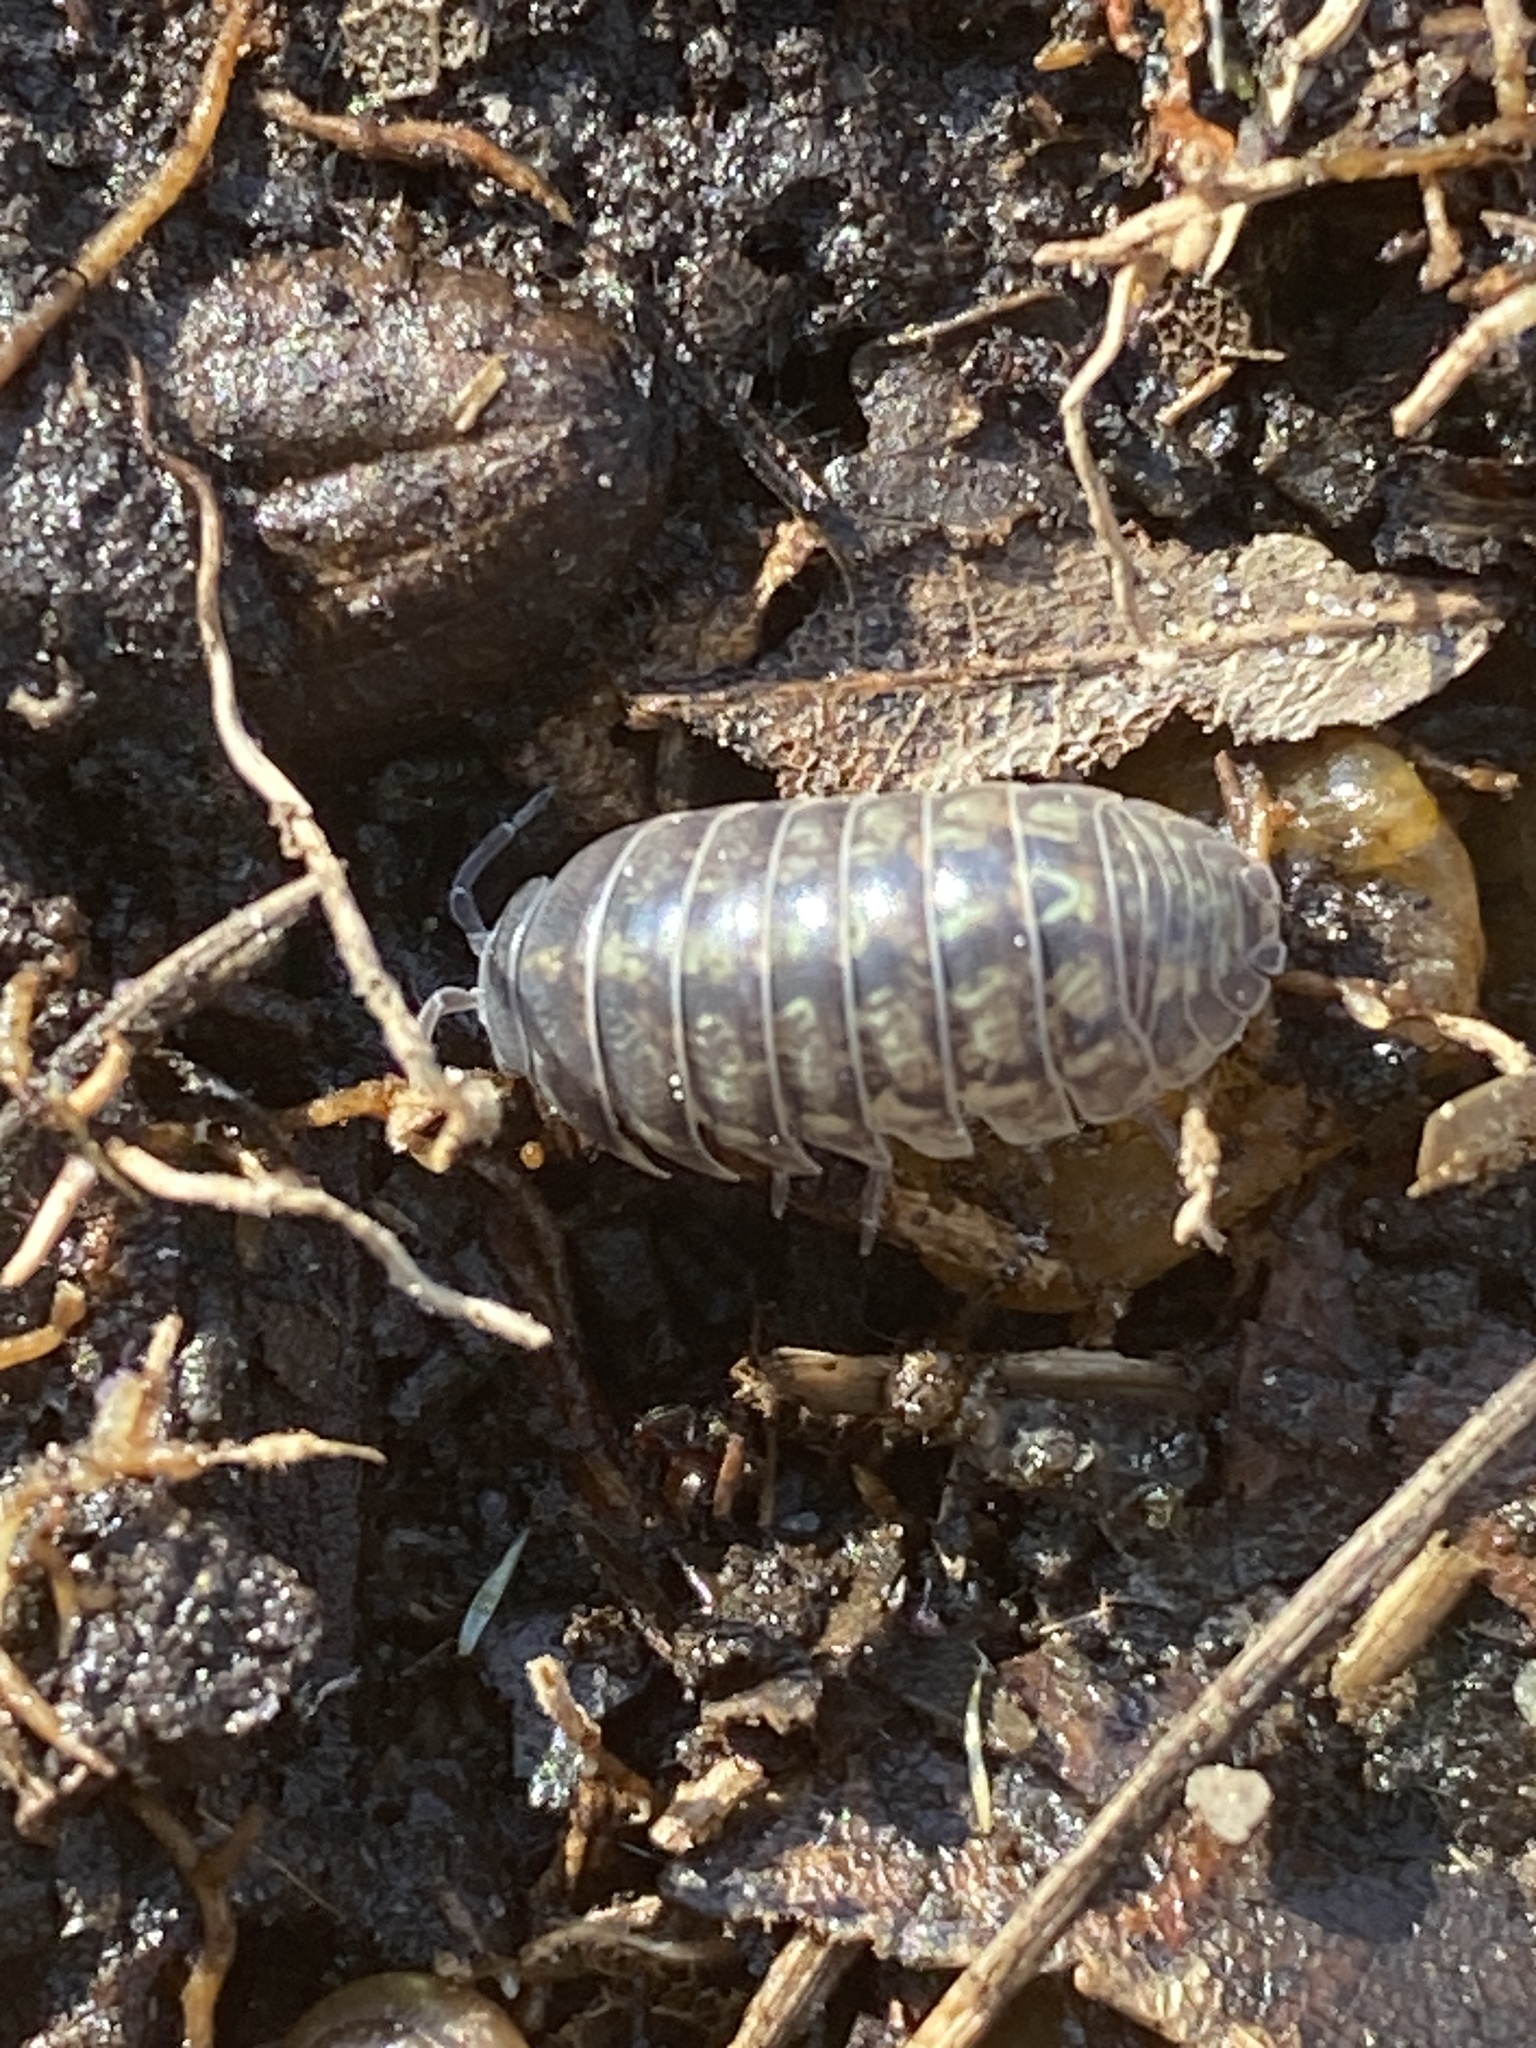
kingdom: Animalia
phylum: Arthropoda
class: Malacostraca
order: Isopoda
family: Armadillidiidae
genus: Armadillidium
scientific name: Armadillidium nasatum
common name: Isopod
